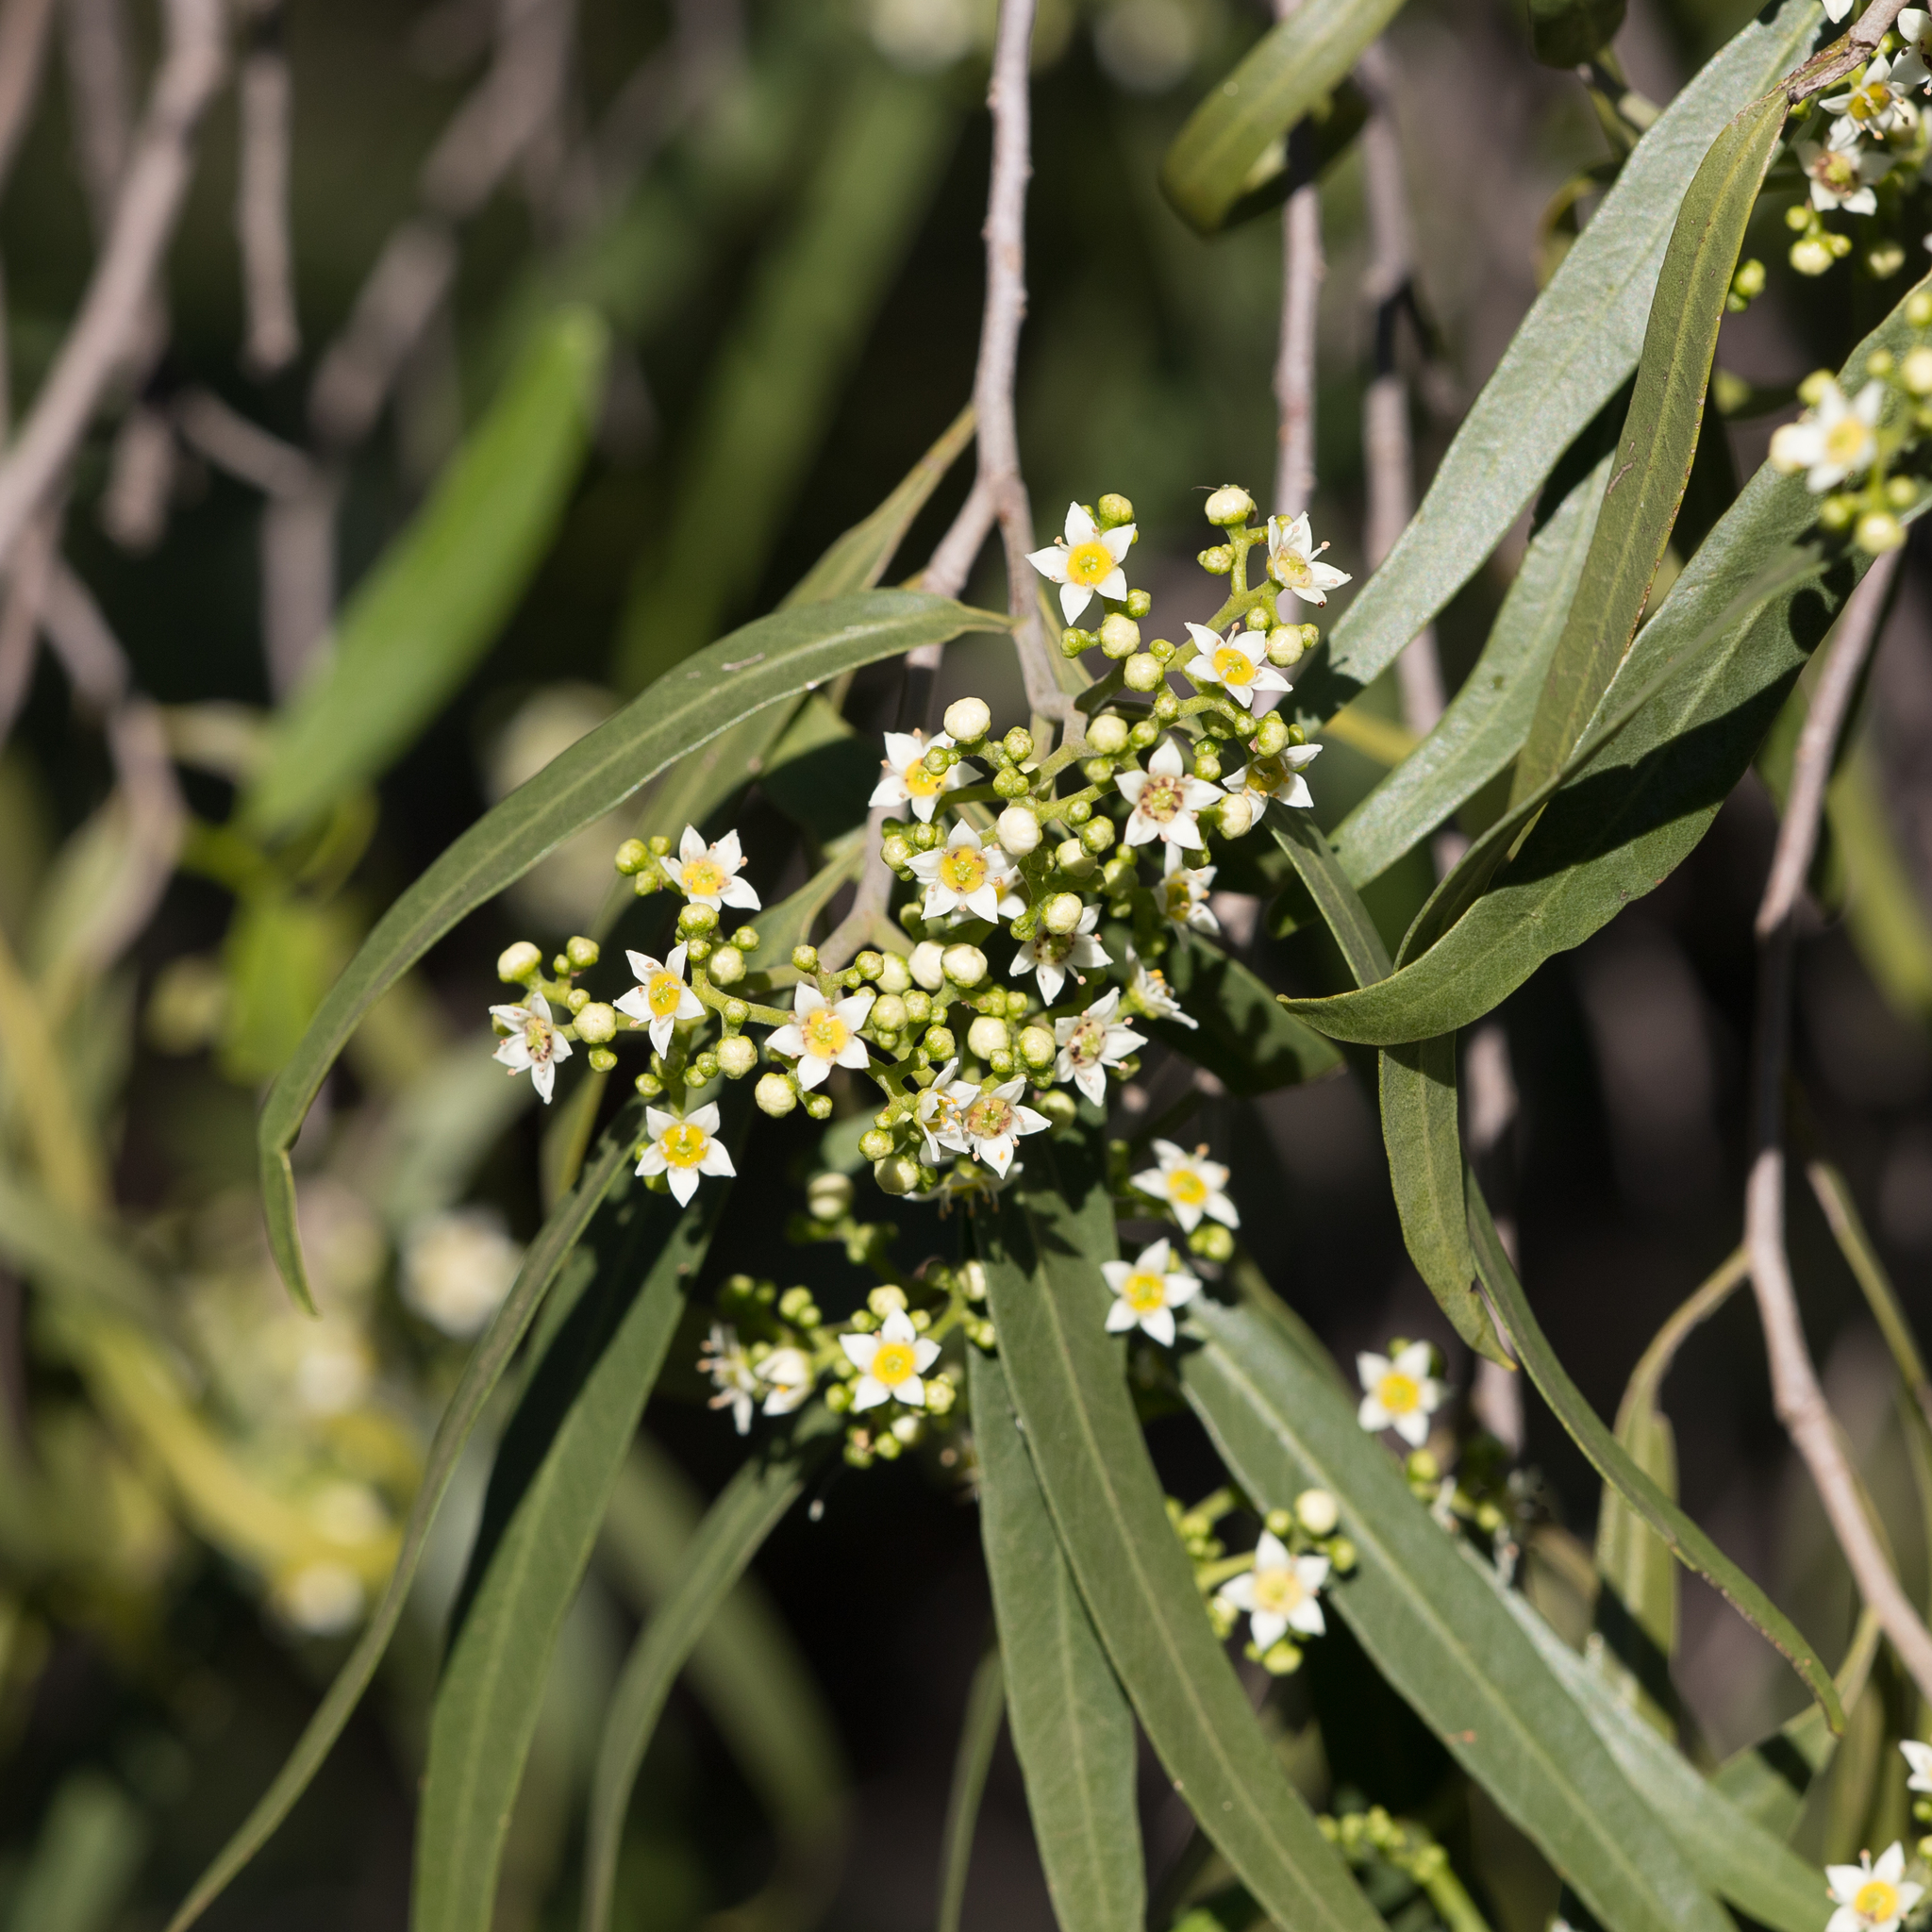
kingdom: Plantae
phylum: Tracheophyta
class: Magnoliopsida
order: Sapindales
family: Rutaceae
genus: Geijera
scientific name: Geijera parviflora
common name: Wilga
